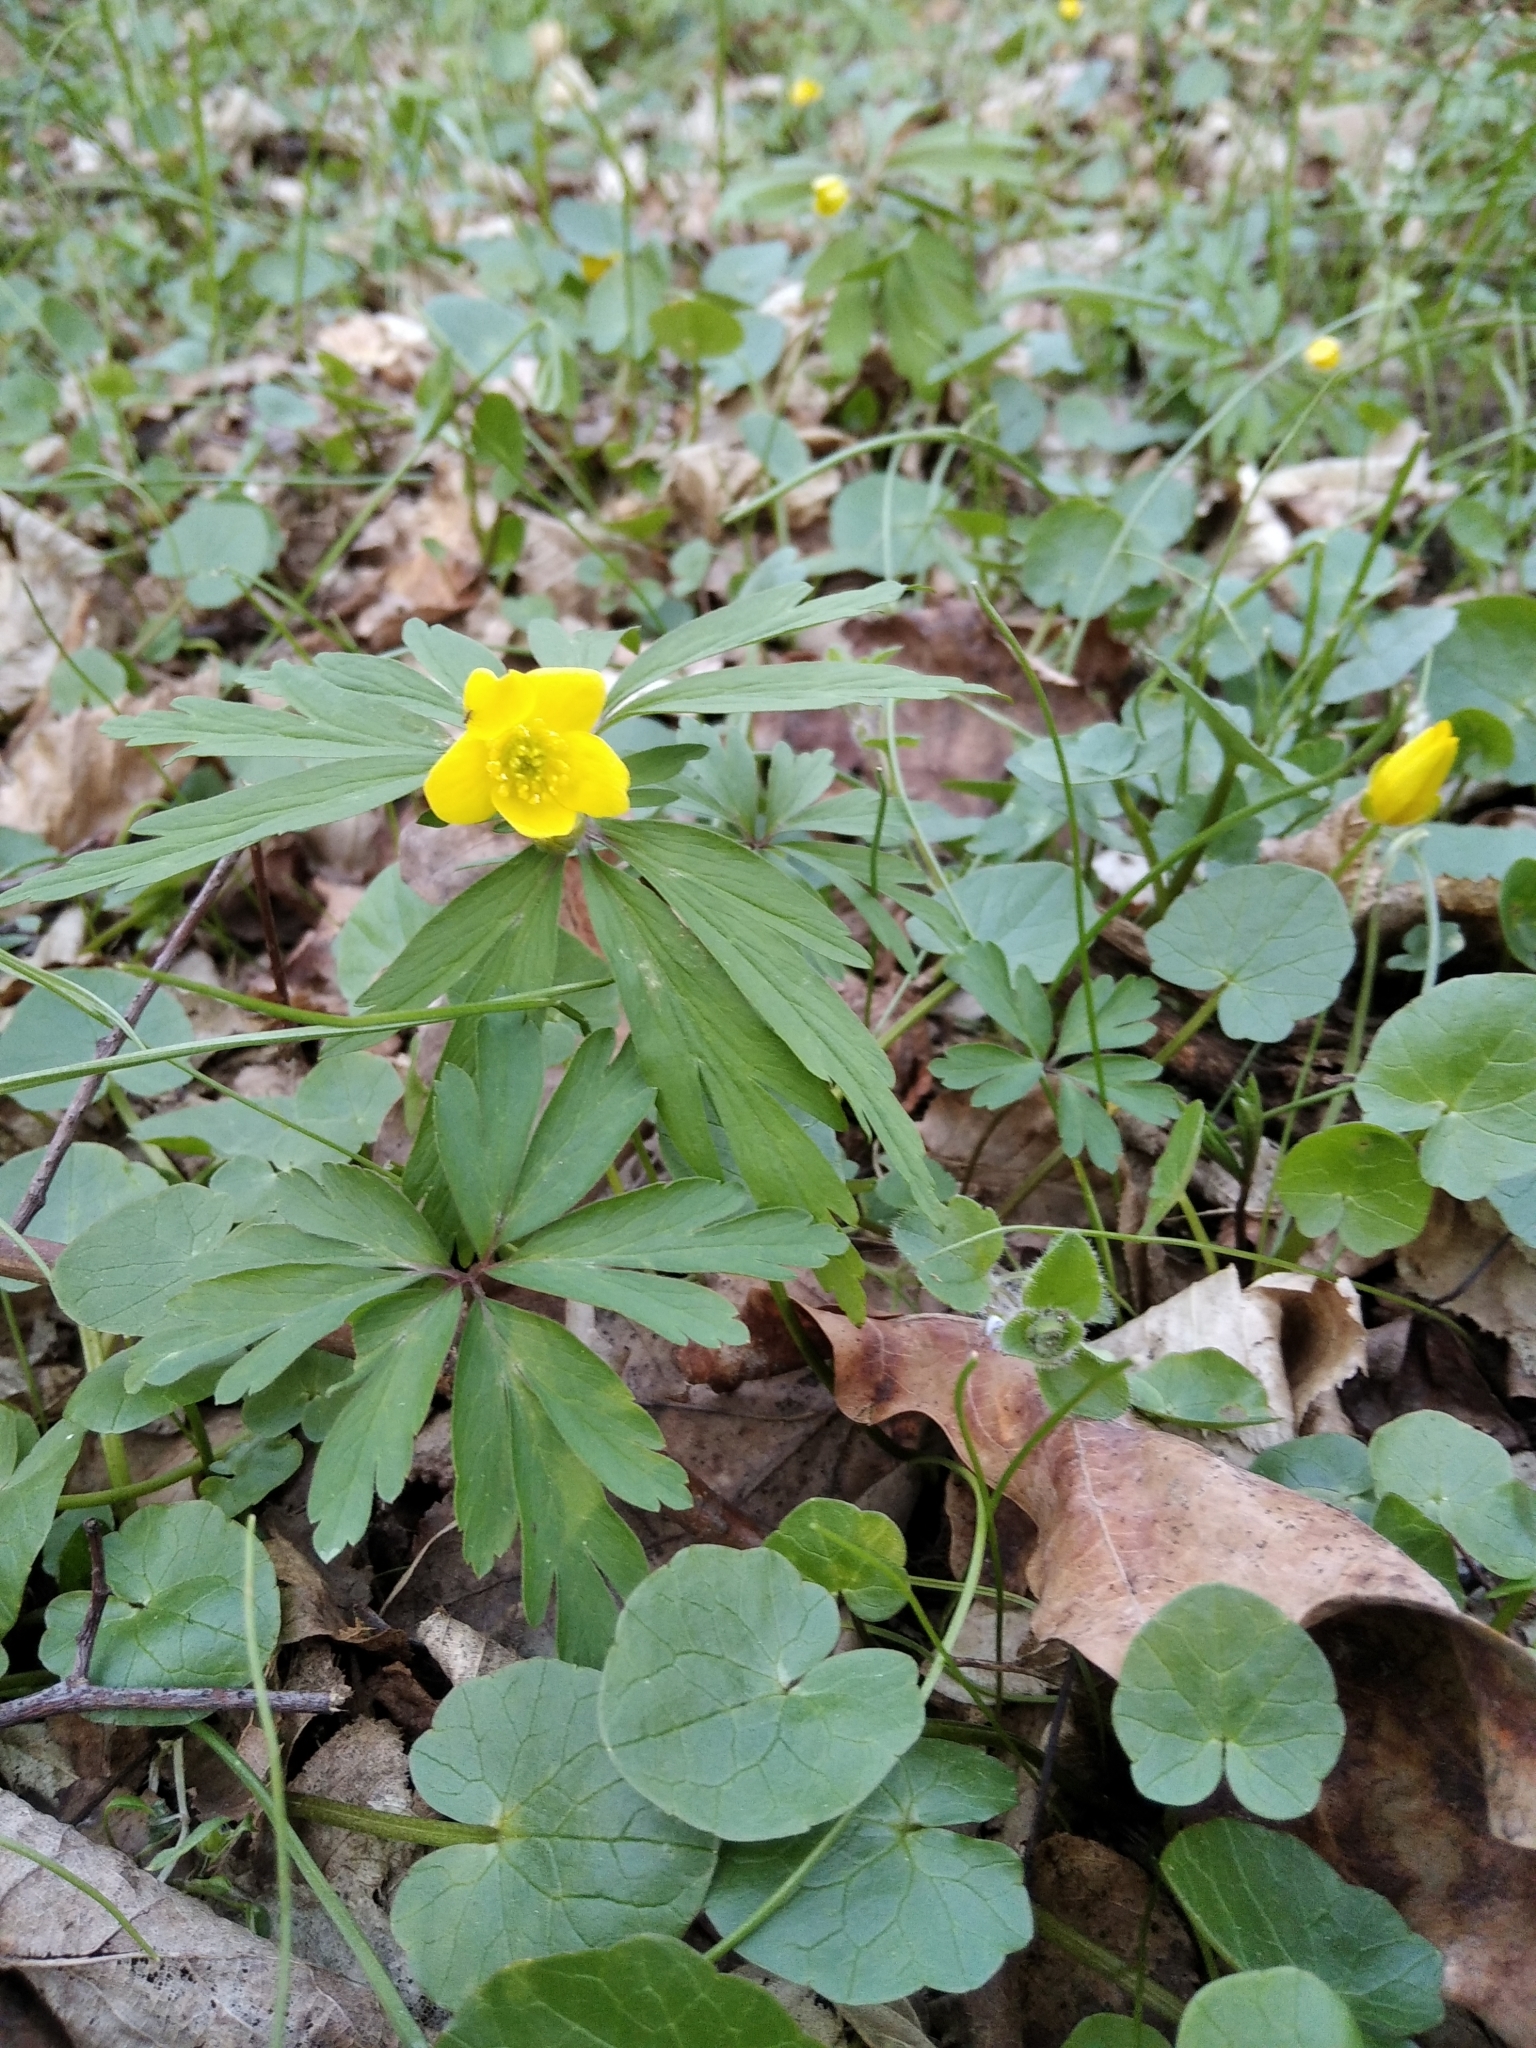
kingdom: Plantae
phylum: Tracheophyta
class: Magnoliopsida
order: Ranunculales
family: Ranunculaceae
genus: Anemone
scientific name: Anemone ranunculoides
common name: Yellow anemone
